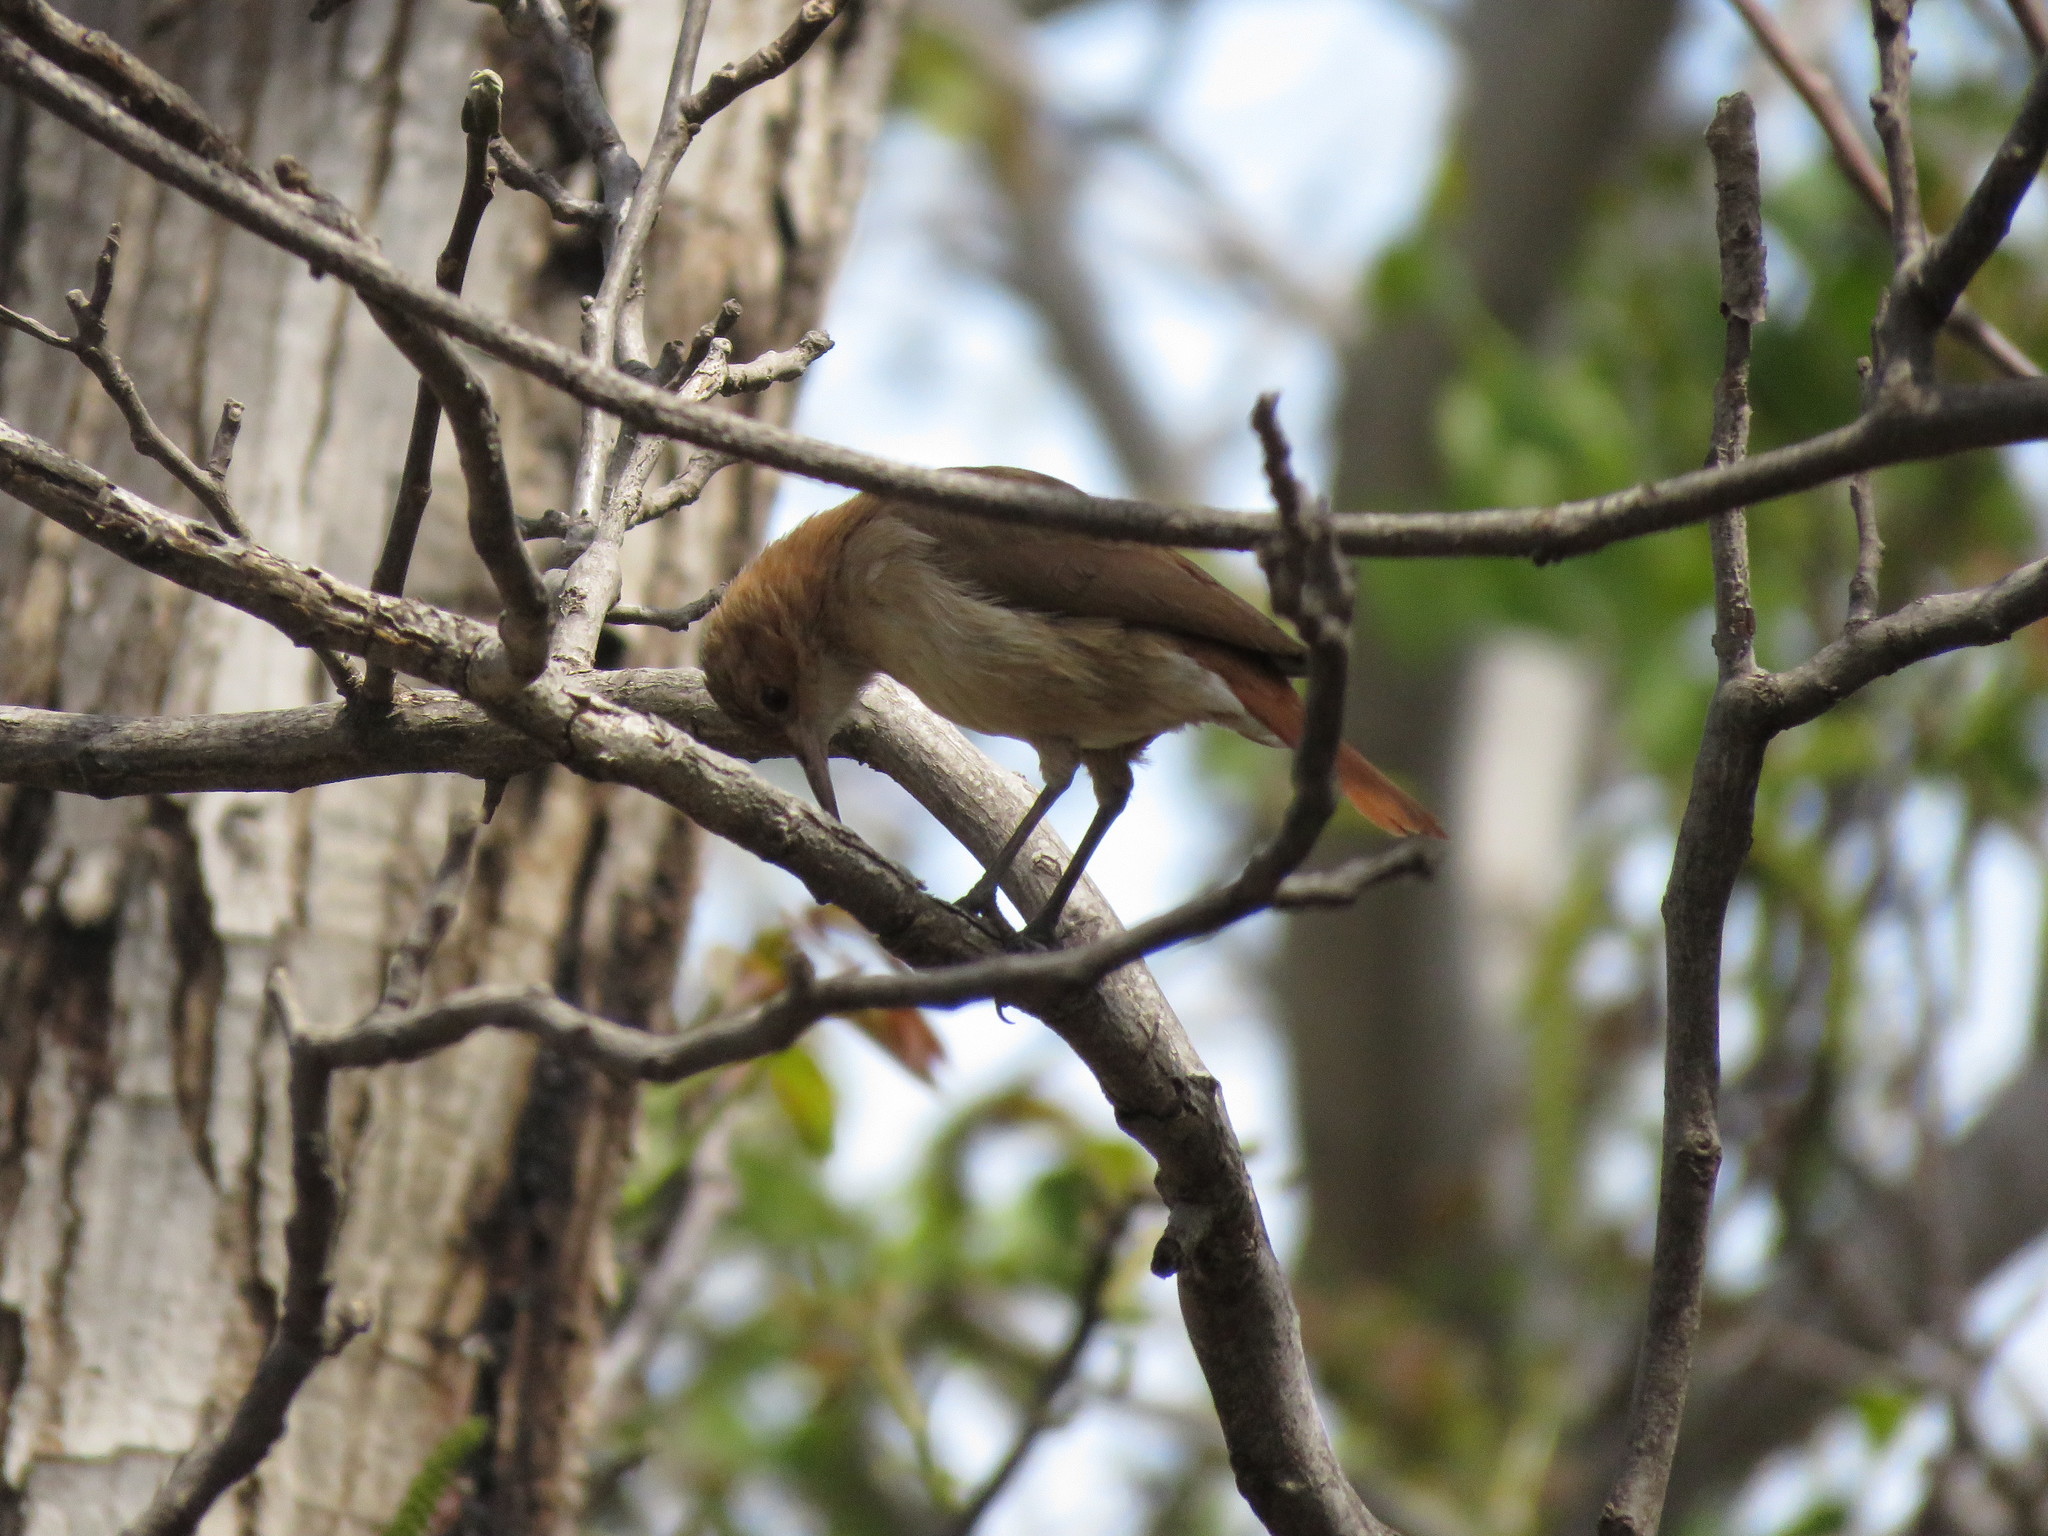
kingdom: Animalia
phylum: Chordata
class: Aves
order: Passeriformes
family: Furnariidae
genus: Furnarius
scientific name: Furnarius rufus
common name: Rufous hornero
